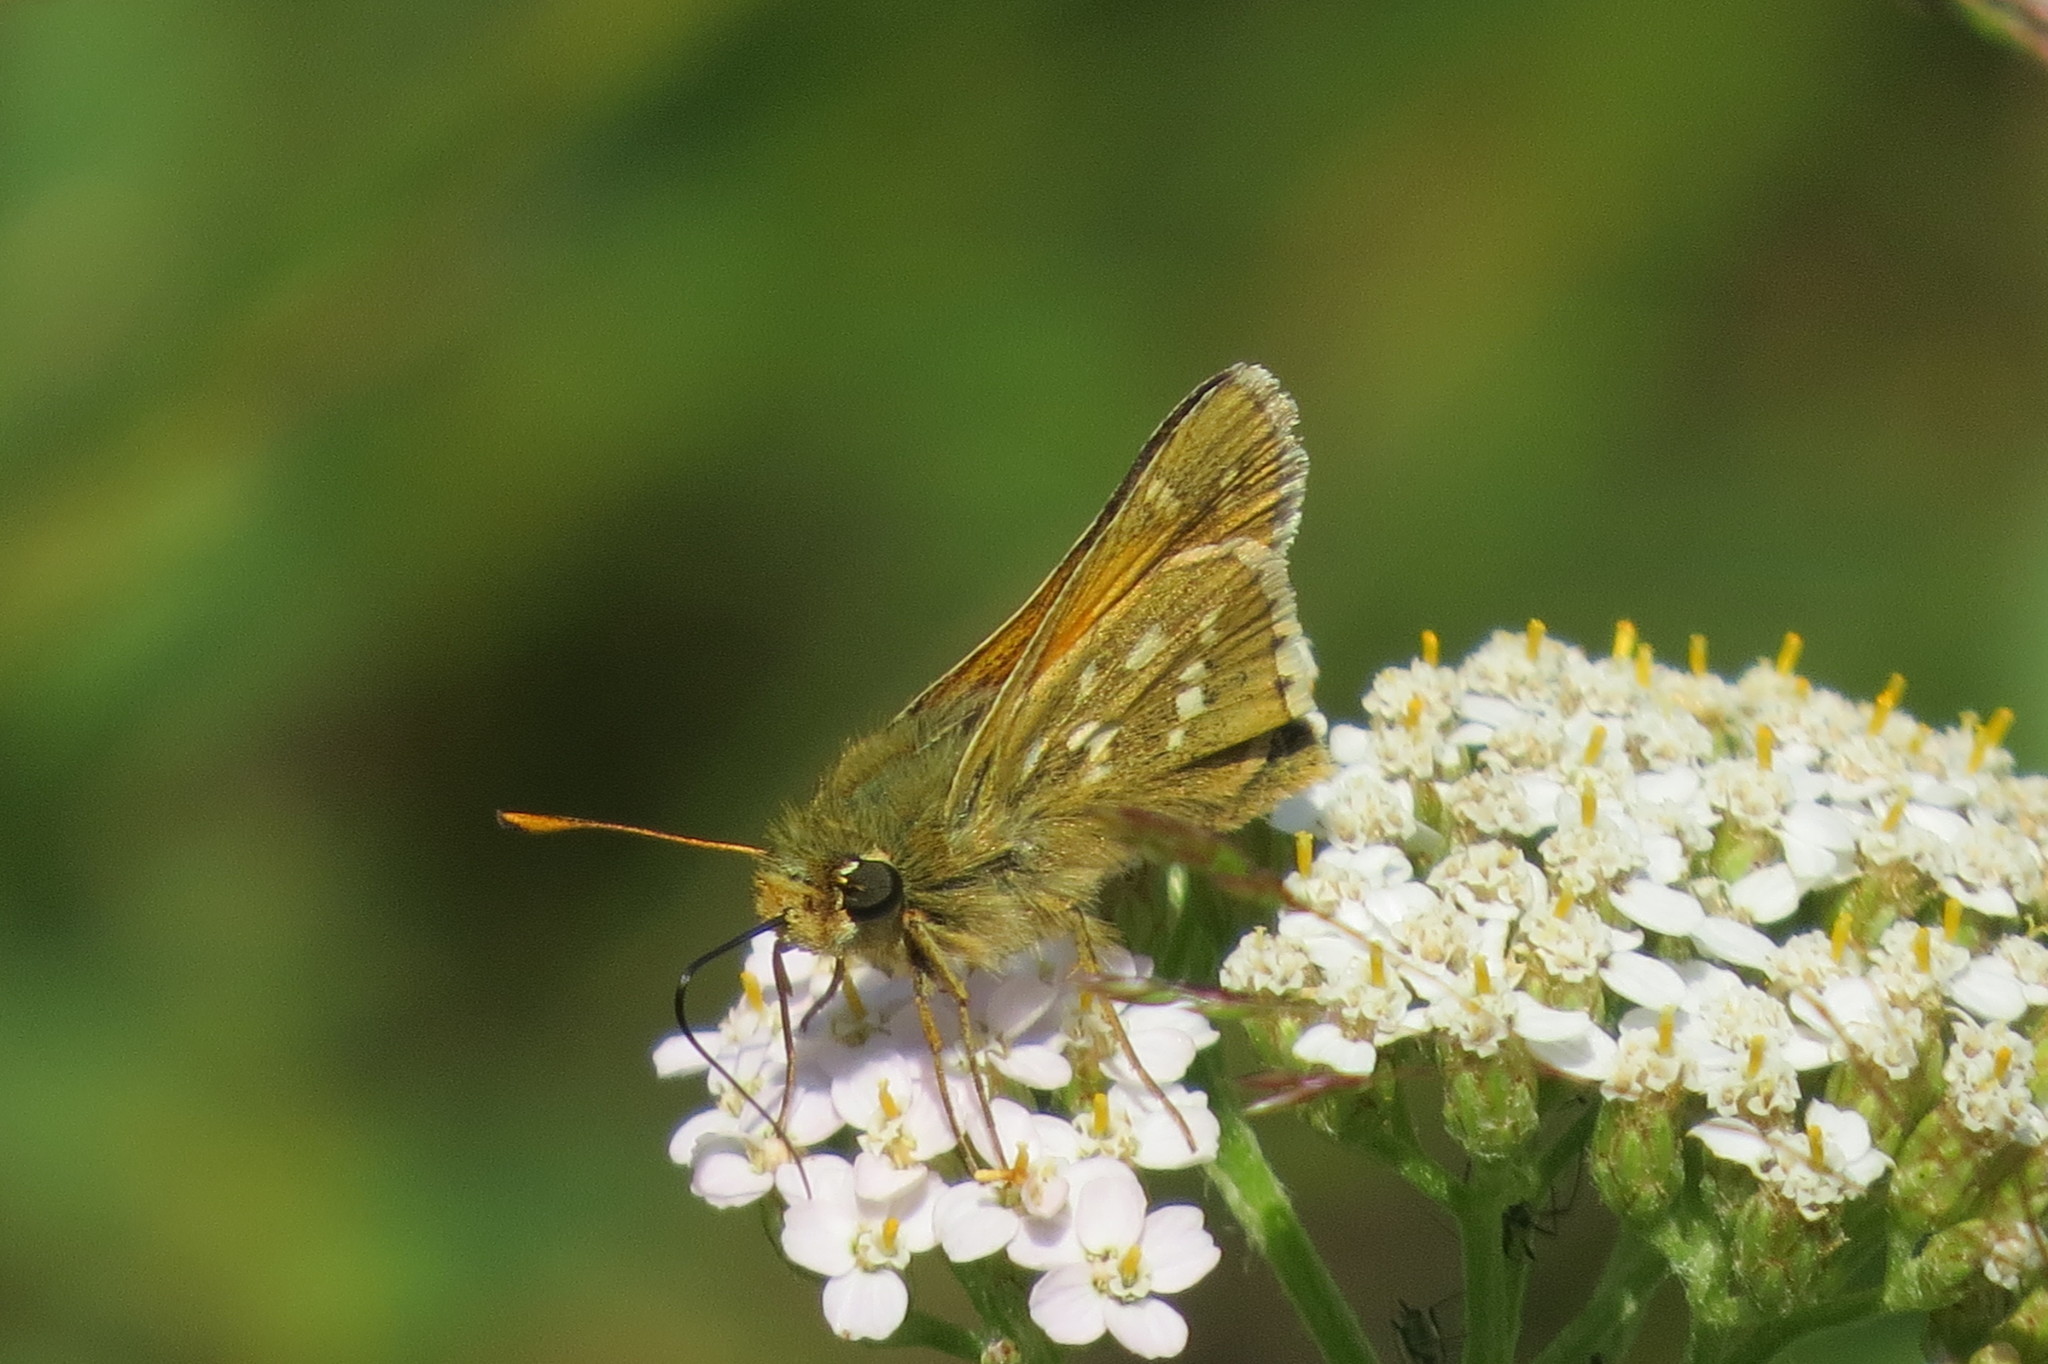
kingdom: Animalia
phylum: Arthropoda
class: Insecta
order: Lepidoptera
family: Hesperiidae
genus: Hesperia
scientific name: Hesperia comma
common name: Common branded skipper
